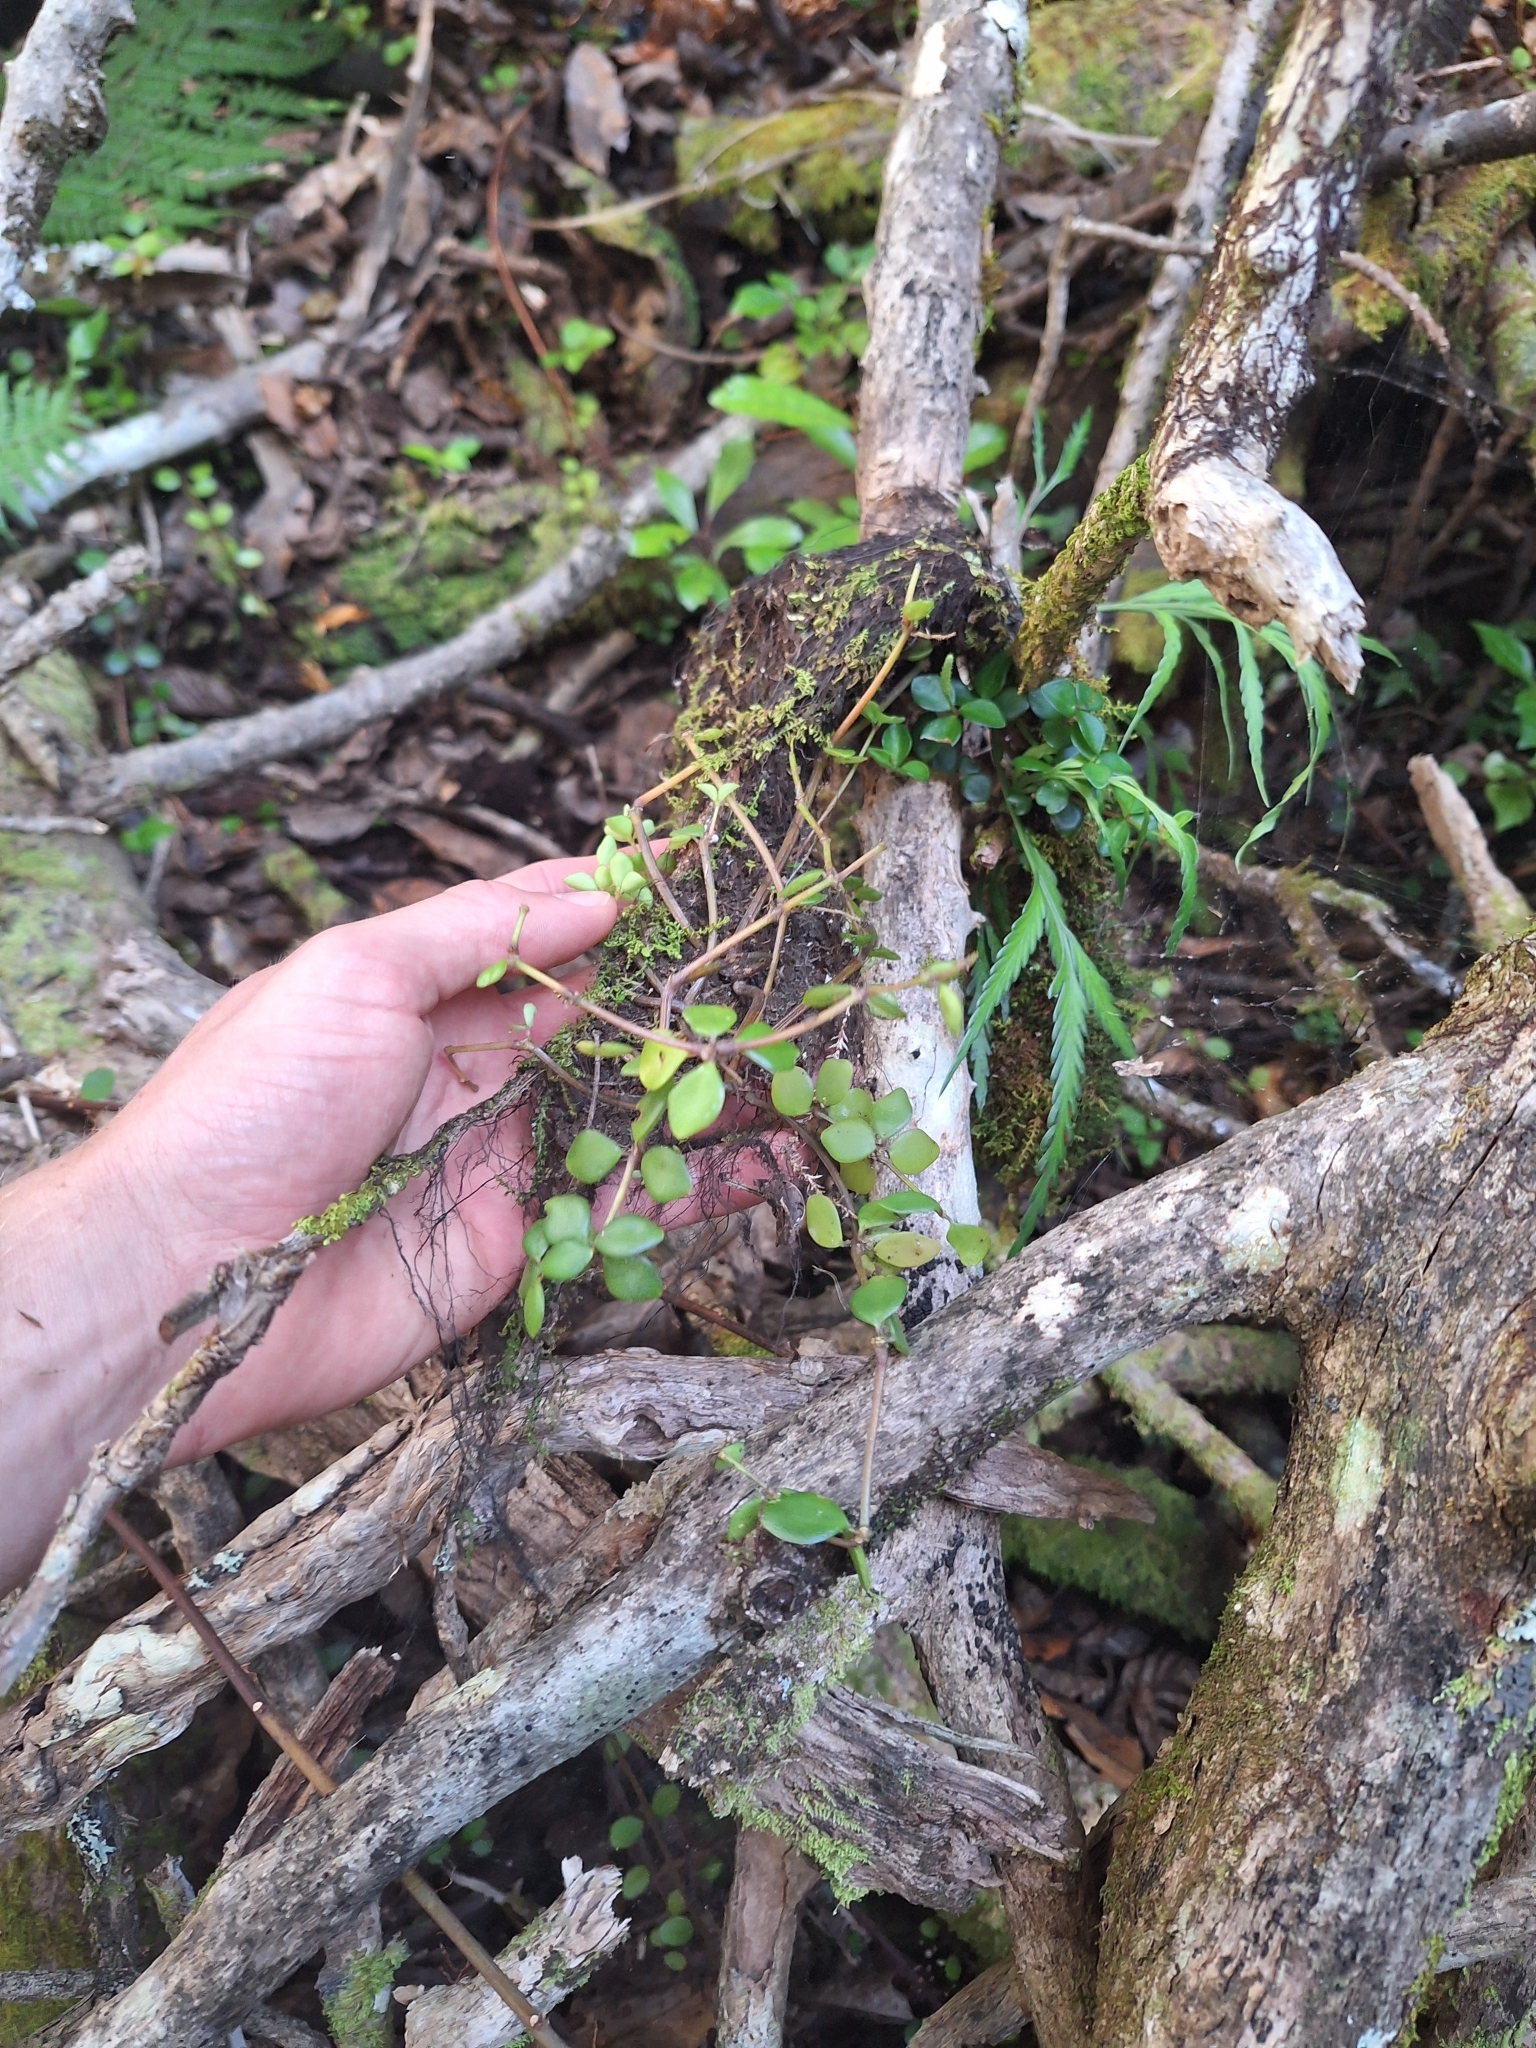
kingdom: Plantae
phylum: Tracheophyta
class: Magnoliopsida
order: Piperales
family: Piperaceae
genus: Peperomia
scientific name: Peperomia tetraphylla
